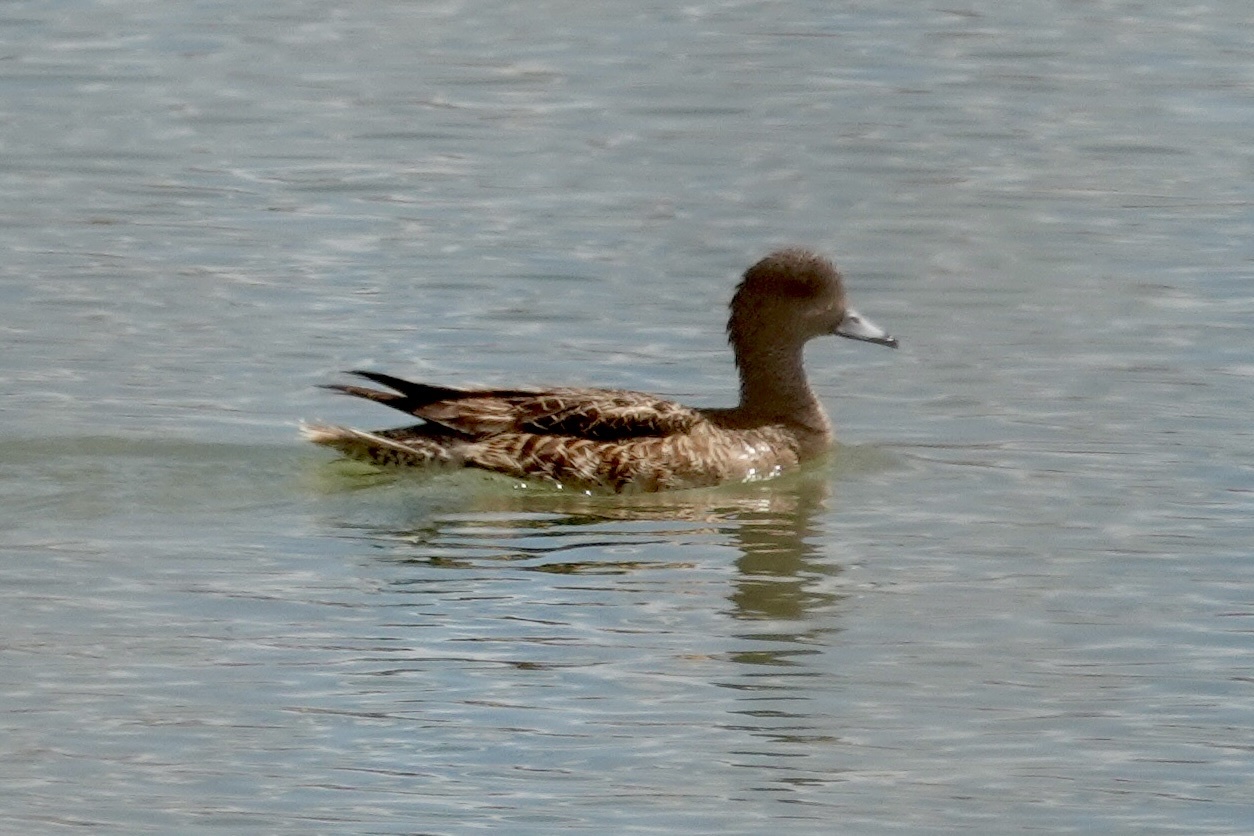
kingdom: Animalia
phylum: Chordata
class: Aves
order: Anseriformes
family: Anatidae
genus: Mareca
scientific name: Mareca americana
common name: American wigeon
